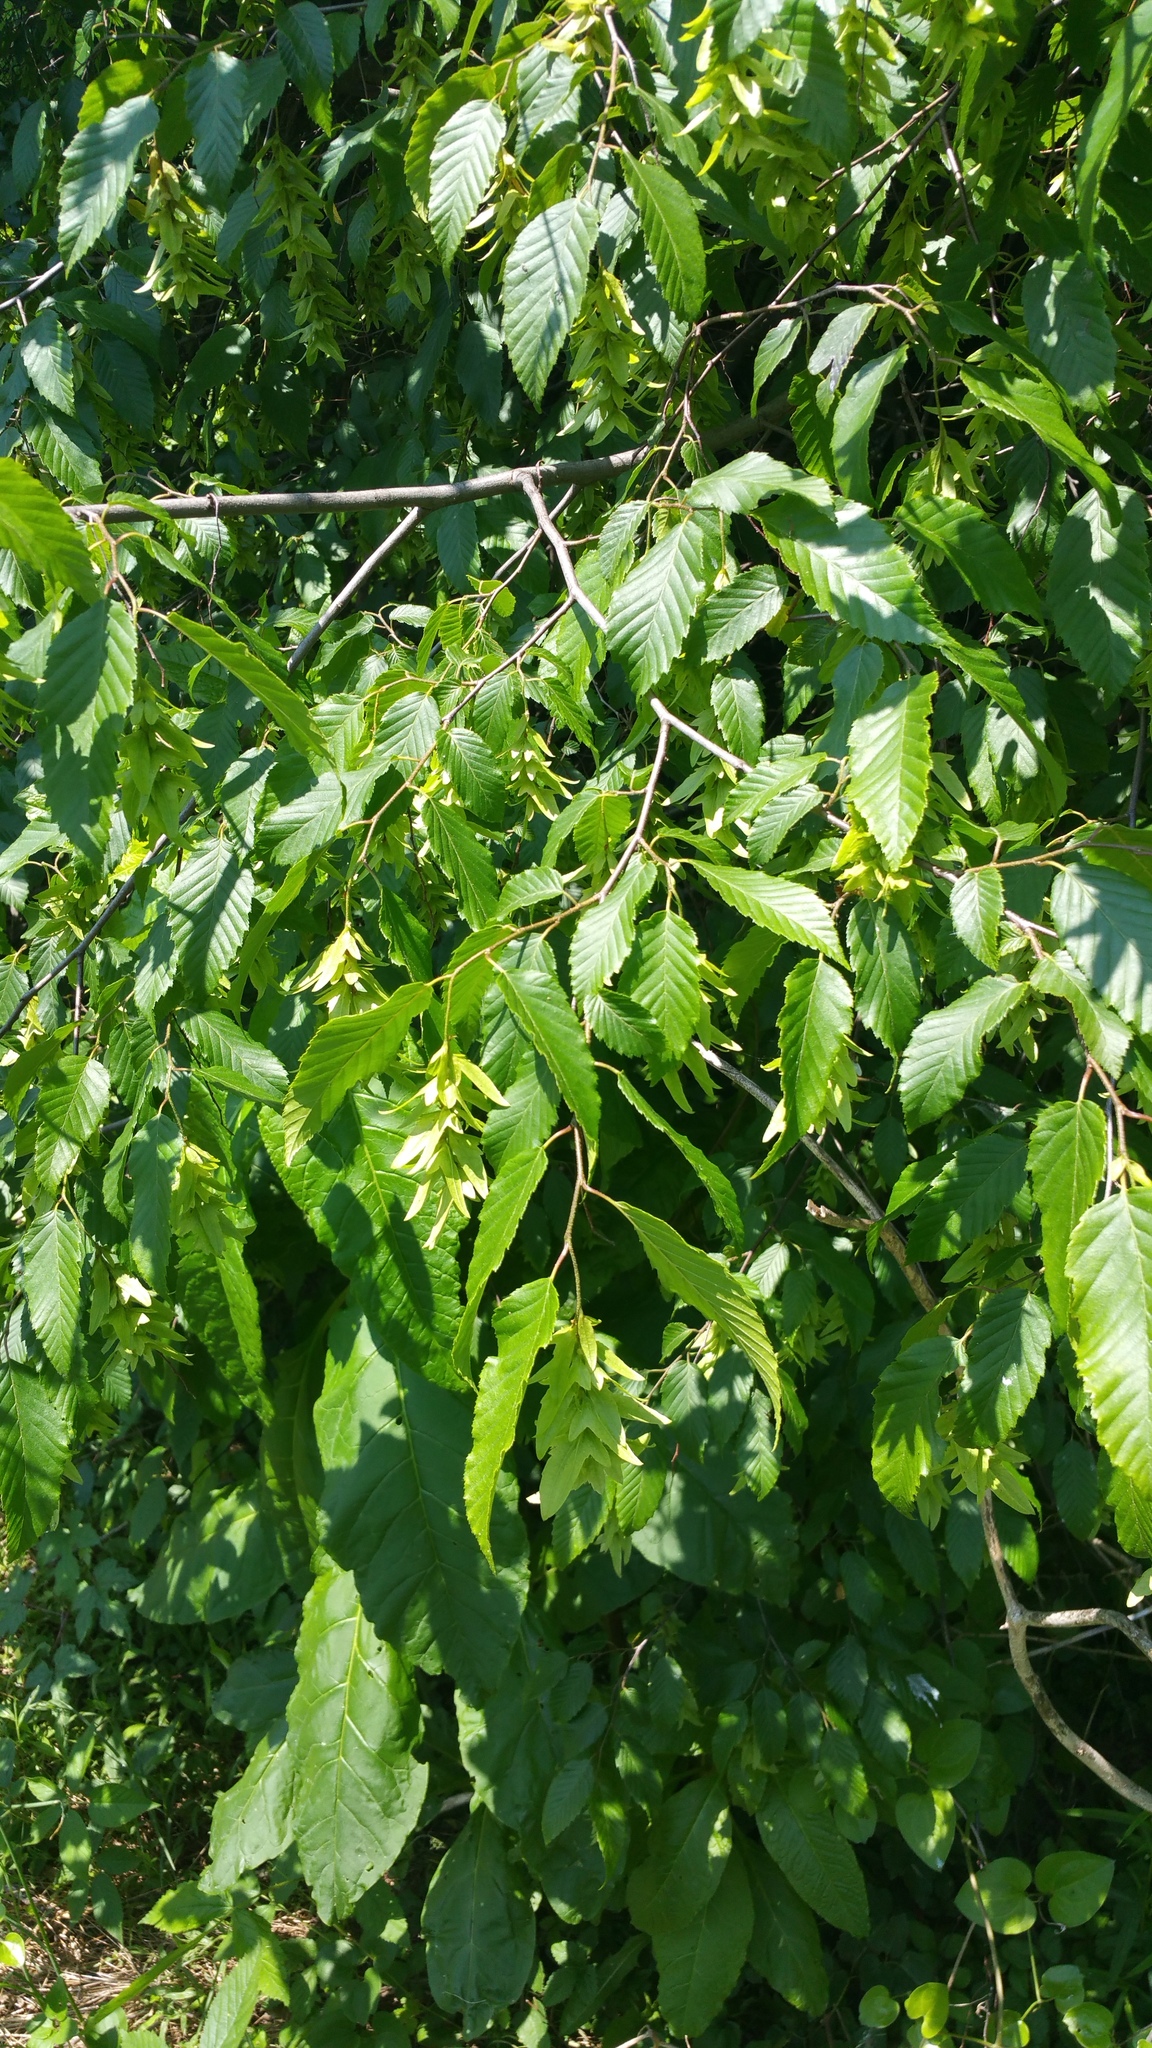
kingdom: Plantae
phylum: Tracheophyta
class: Magnoliopsida
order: Fagales
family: Betulaceae
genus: Carpinus
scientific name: Carpinus caroliniana
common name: American hornbeam
